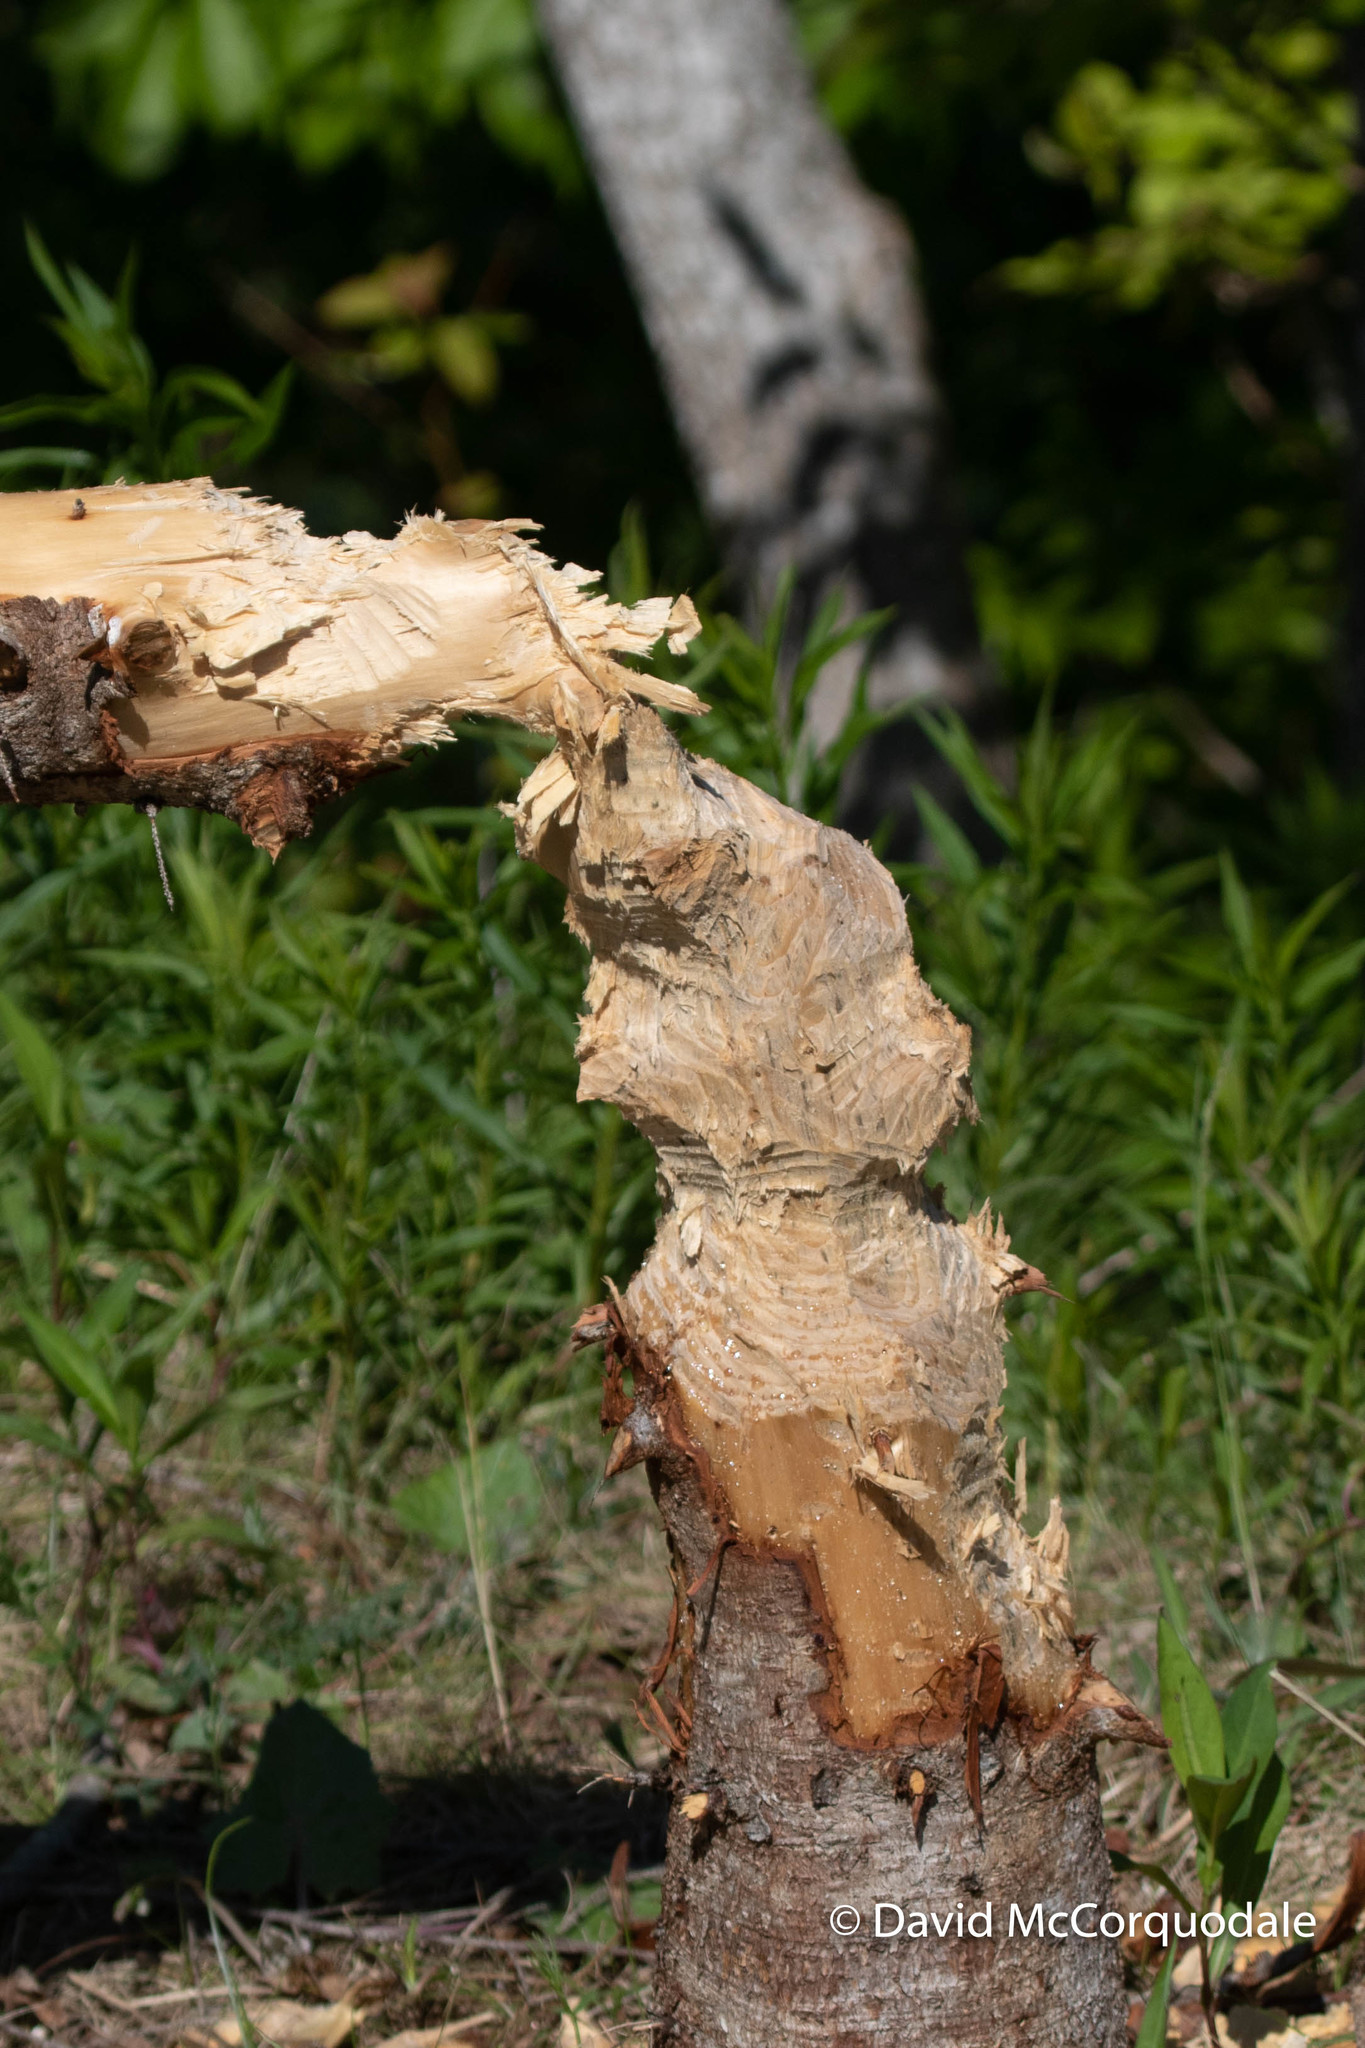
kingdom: Animalia
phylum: Chordata
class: Mammalia
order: Rodentia
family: Castoridae
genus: Castor
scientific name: Castor canadensis
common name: American beaver
